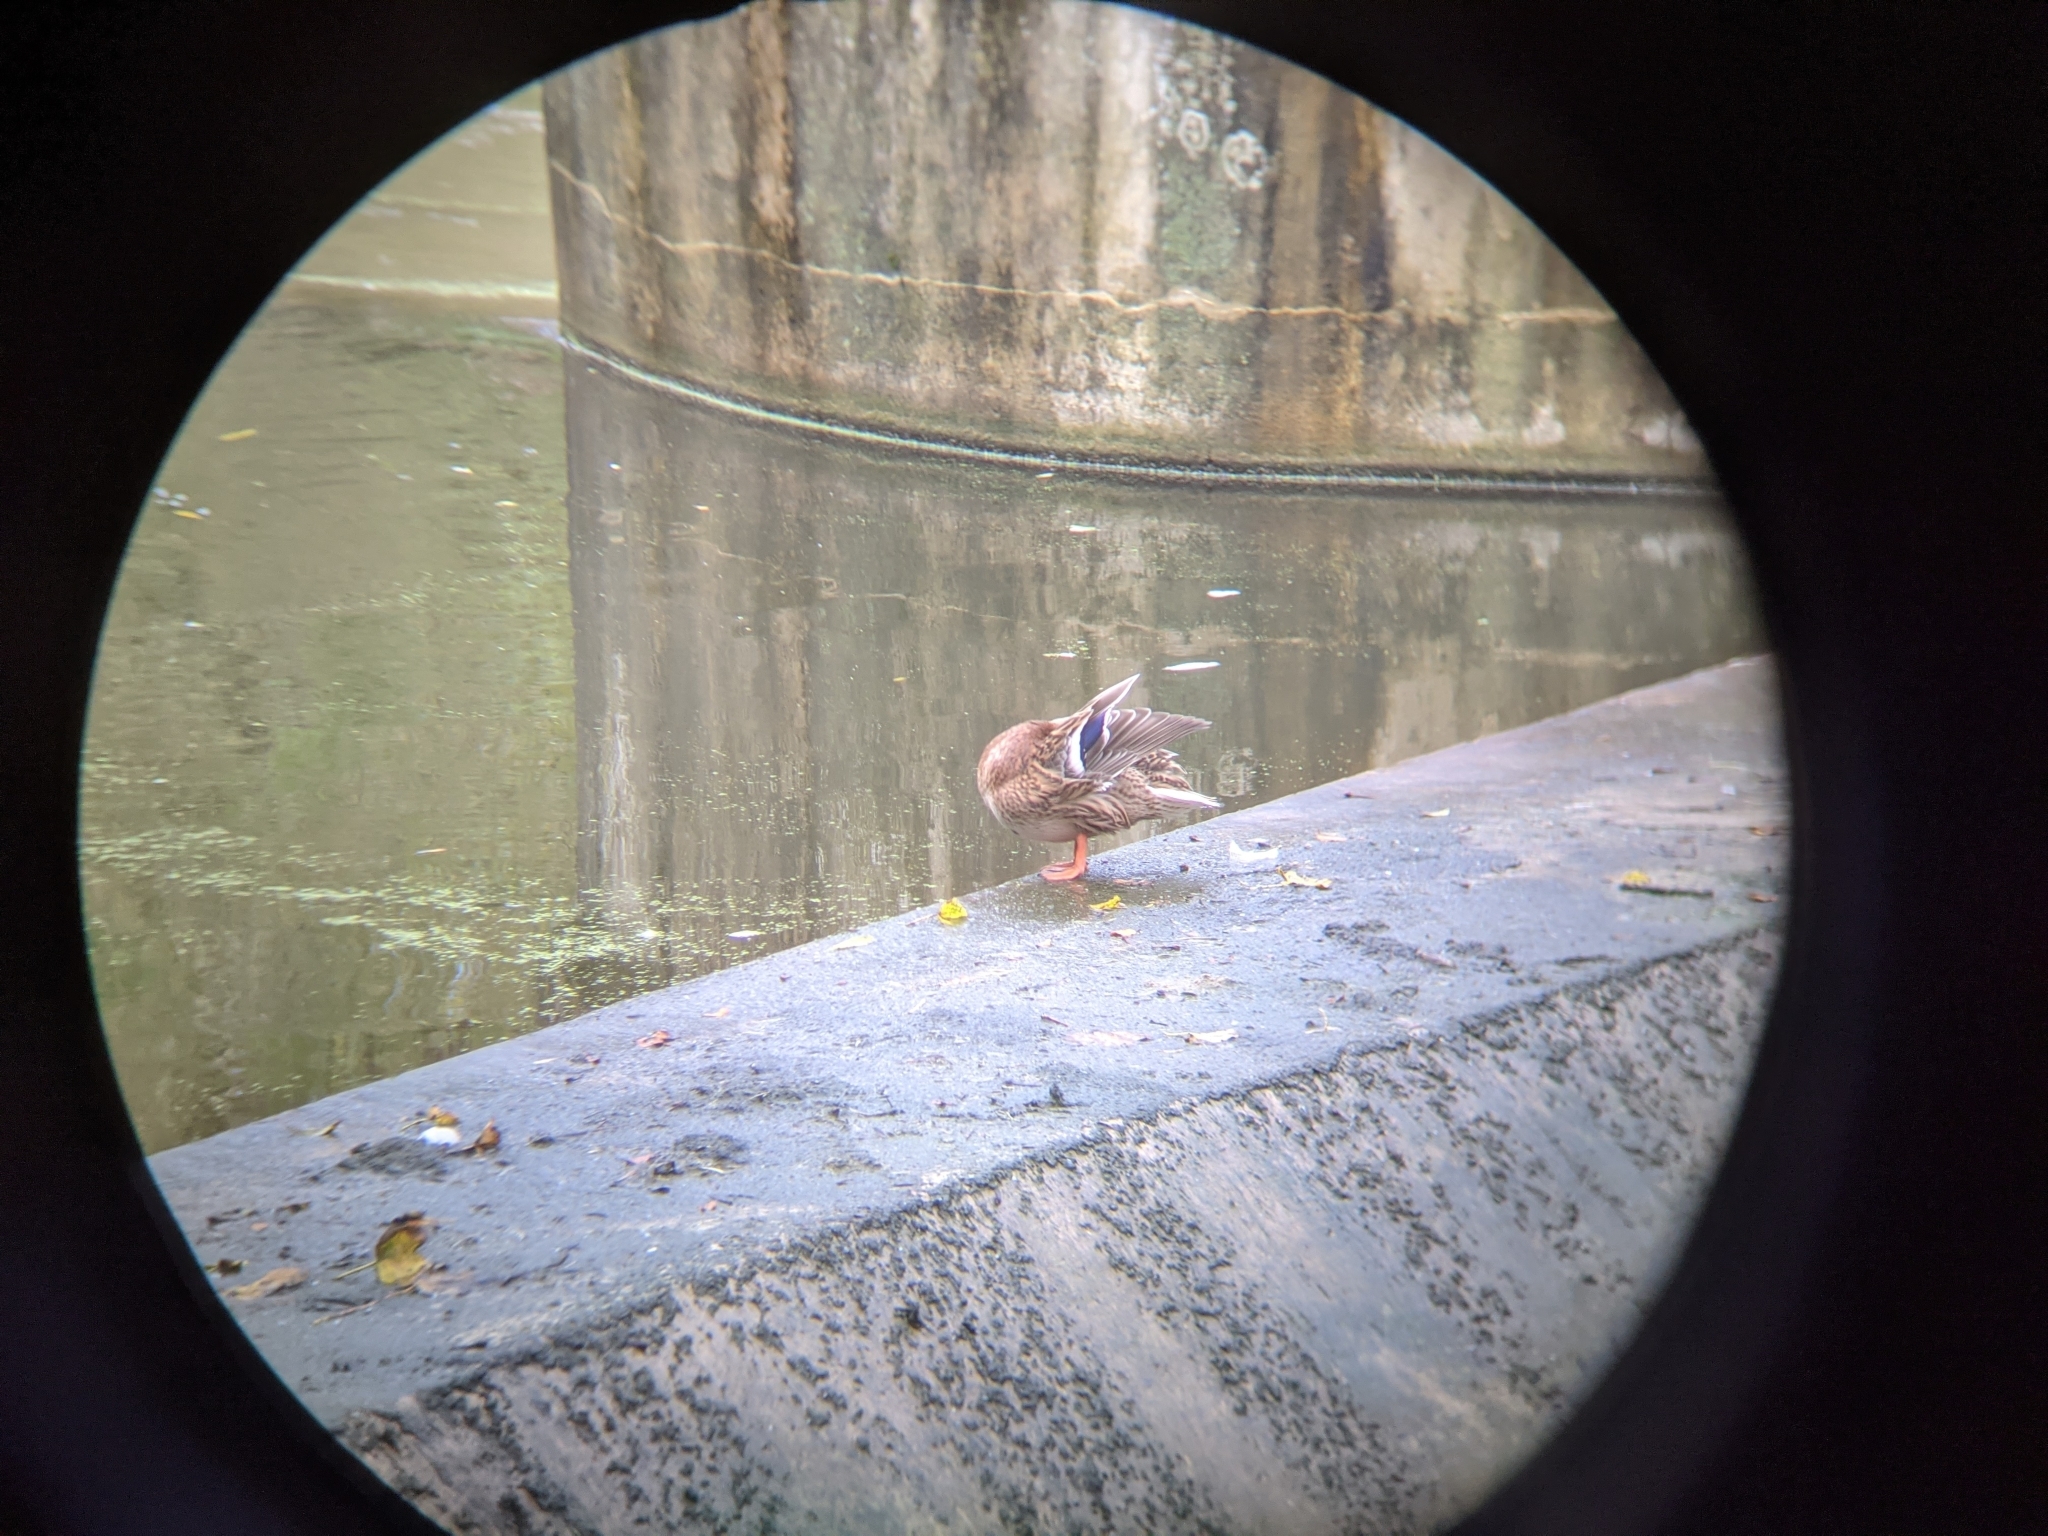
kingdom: Animalia
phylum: Chordata
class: Aves
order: Anseriformes
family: Anatidae
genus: Anas
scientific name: Anas platyrhynchos
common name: Mallard
